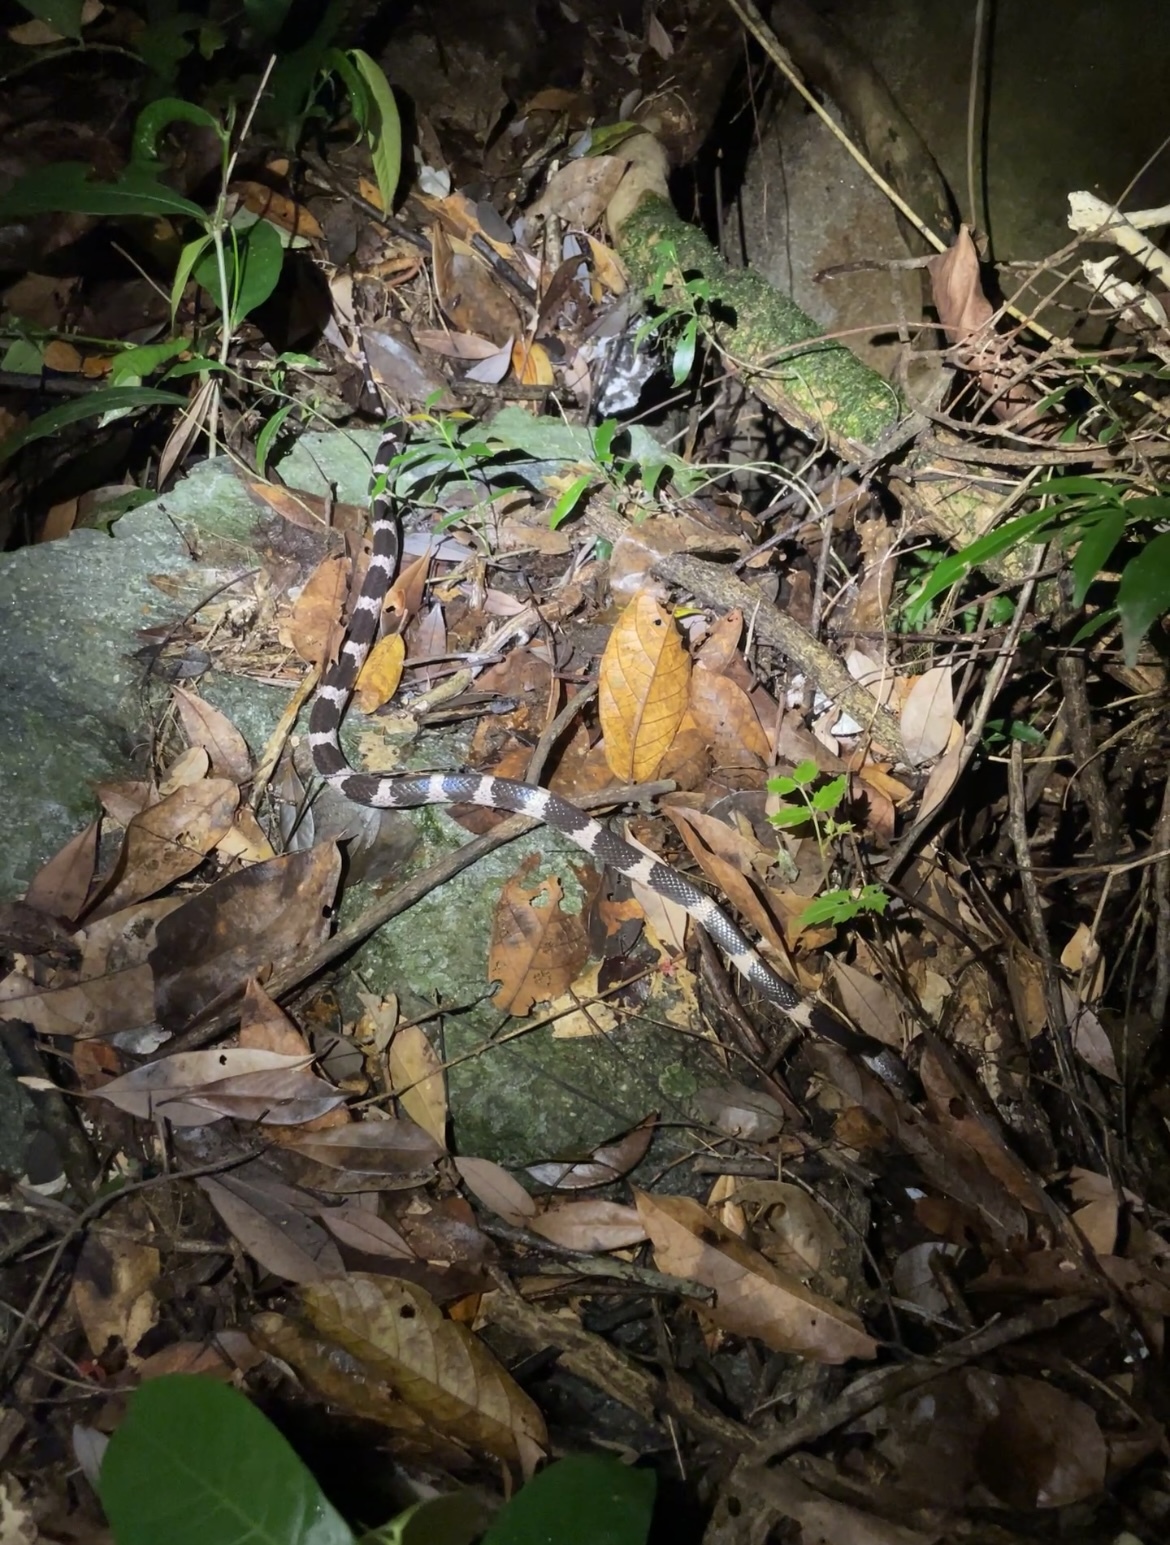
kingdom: Animalia
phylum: Chordata
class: Squamata
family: Colubridae
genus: Lycodon
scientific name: Lycodon futsingensis
